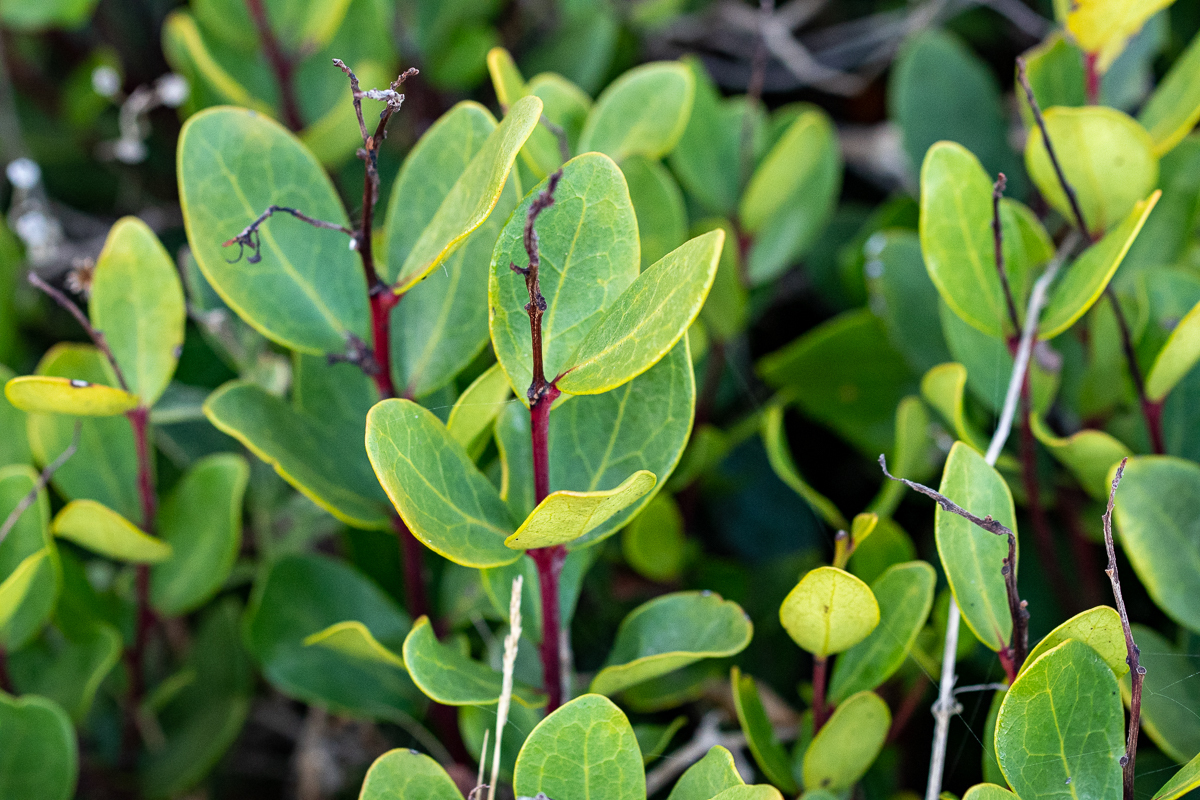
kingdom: Plantae
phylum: Tracheophyta
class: Magnoliopsida
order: Ericales
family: Ebenaceae
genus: Euclea
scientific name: Euclea racemosa
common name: Dune guarri
